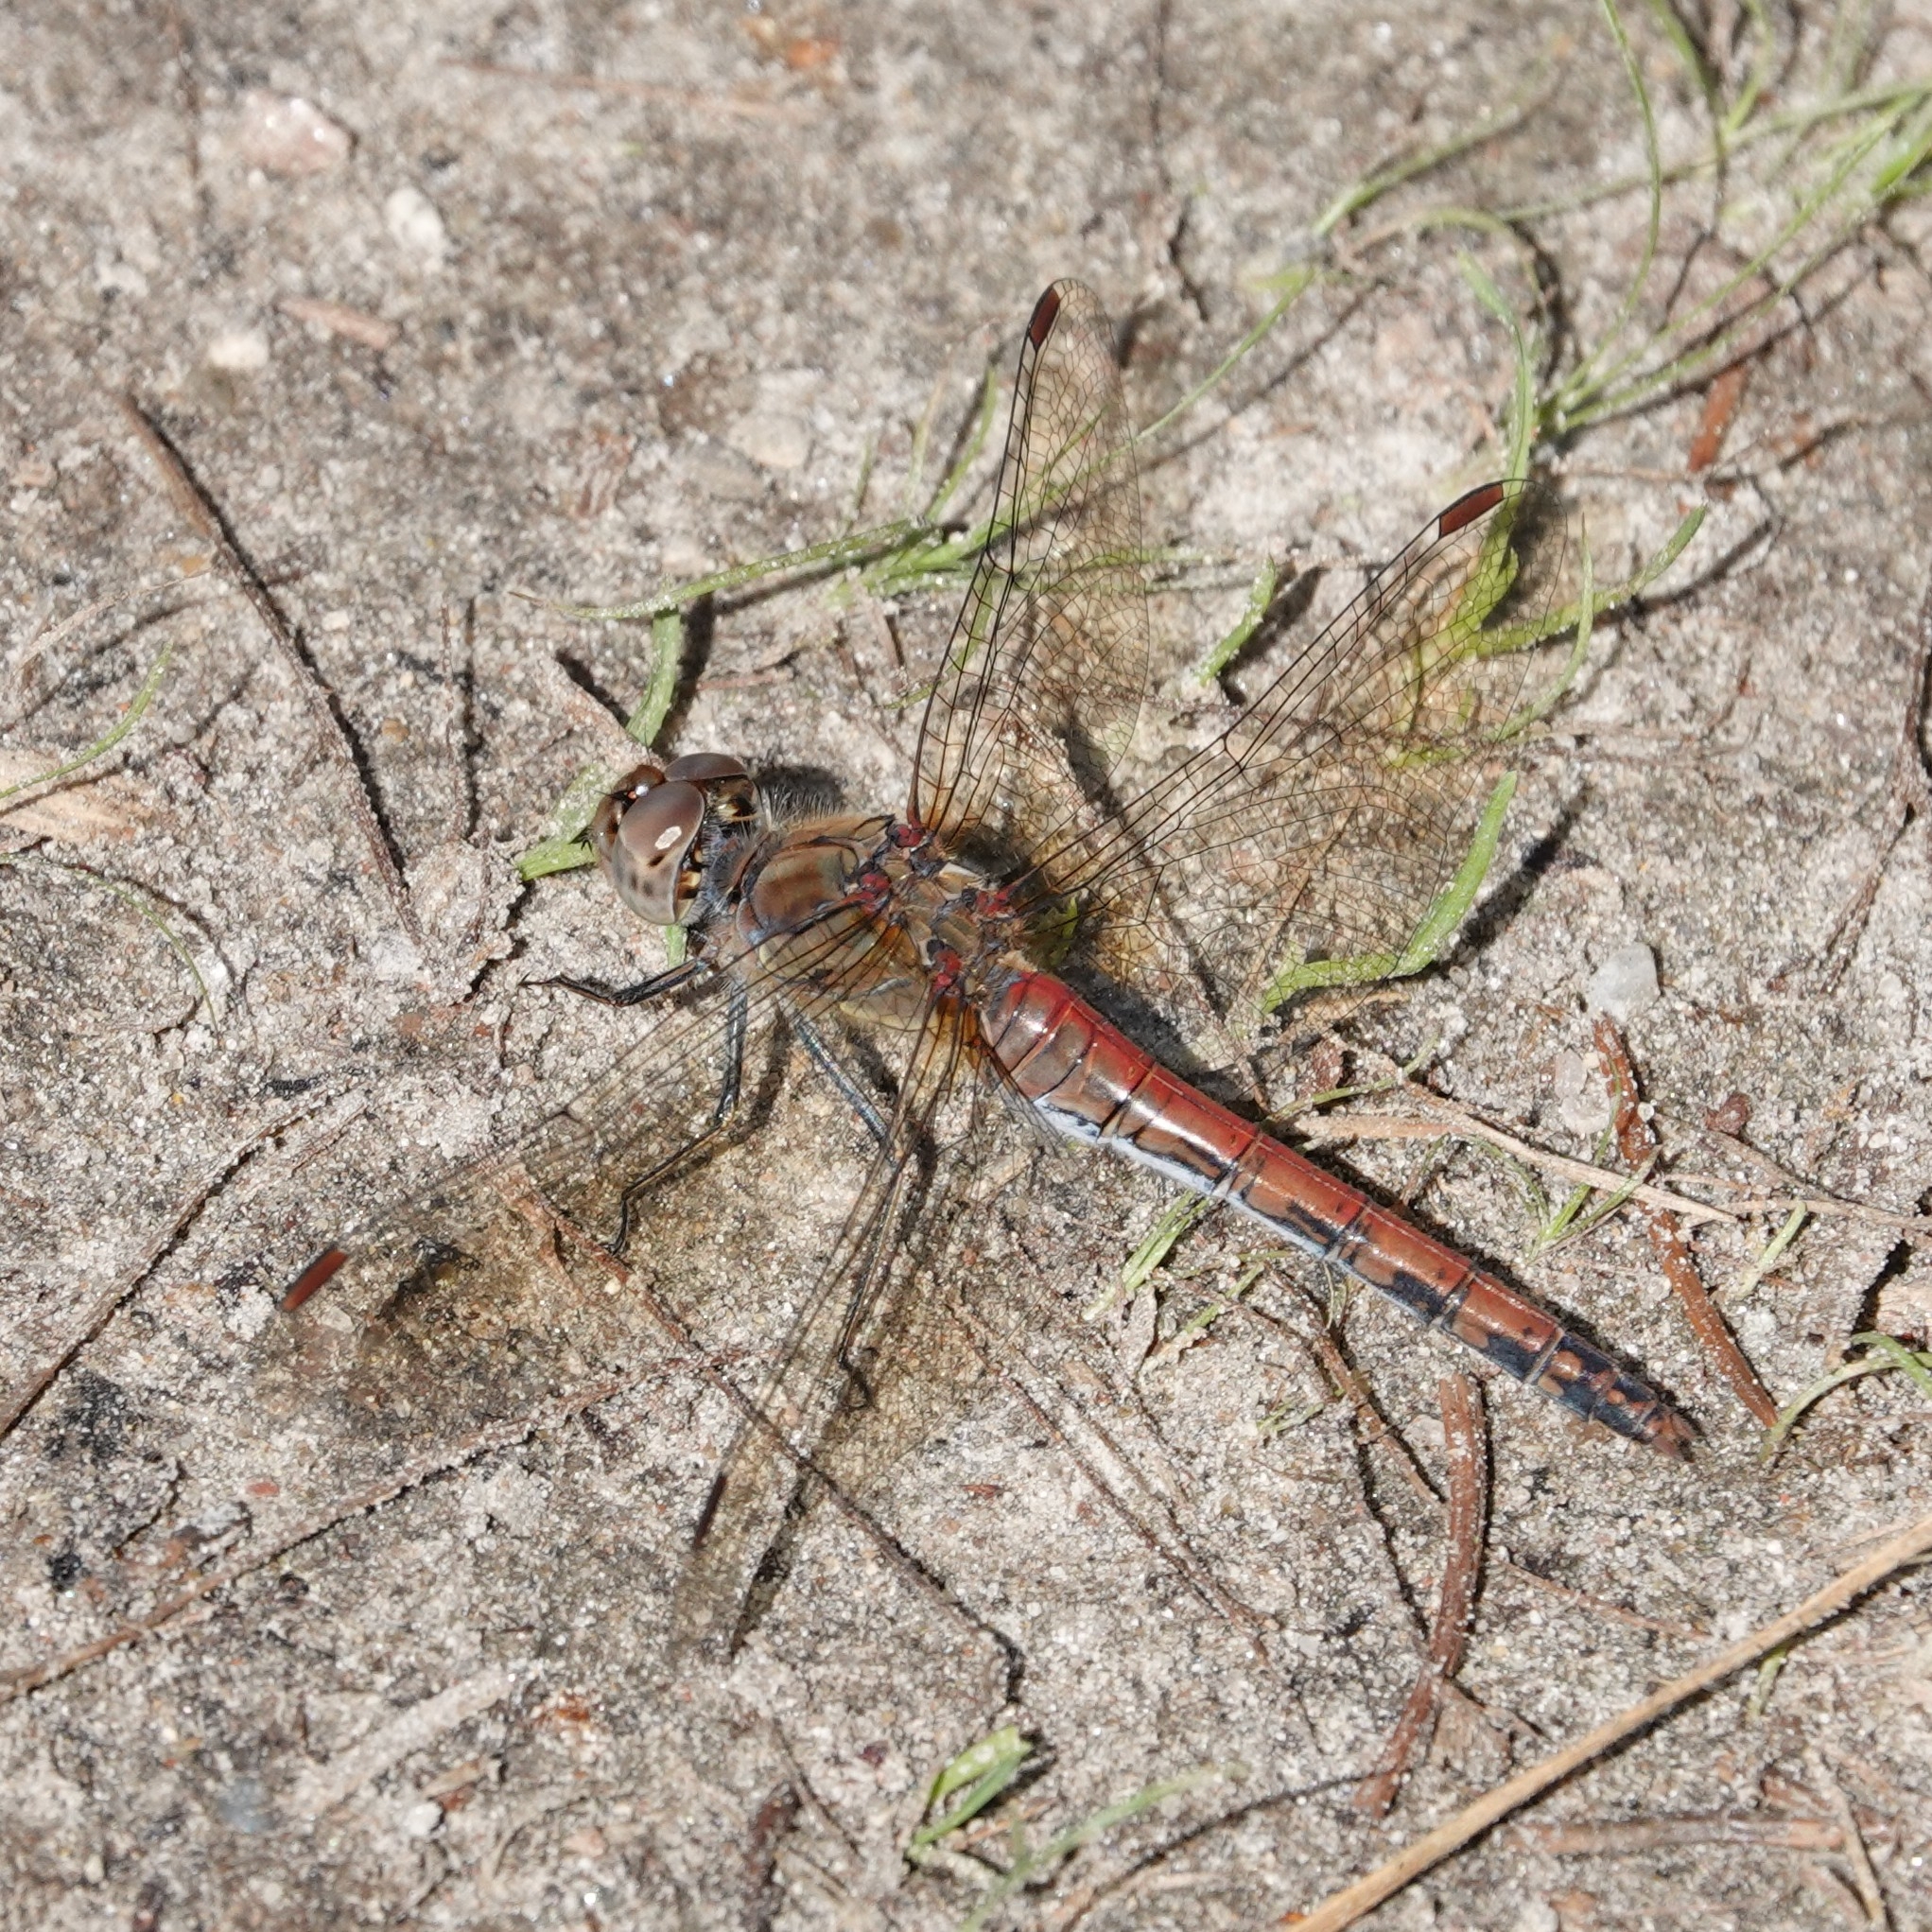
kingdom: Animalia
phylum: Arthropoda
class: Insecta
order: Odonata
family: Libellulidae
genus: Sympetrum
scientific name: Sympetrum vulgatum
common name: Vagrant darter
